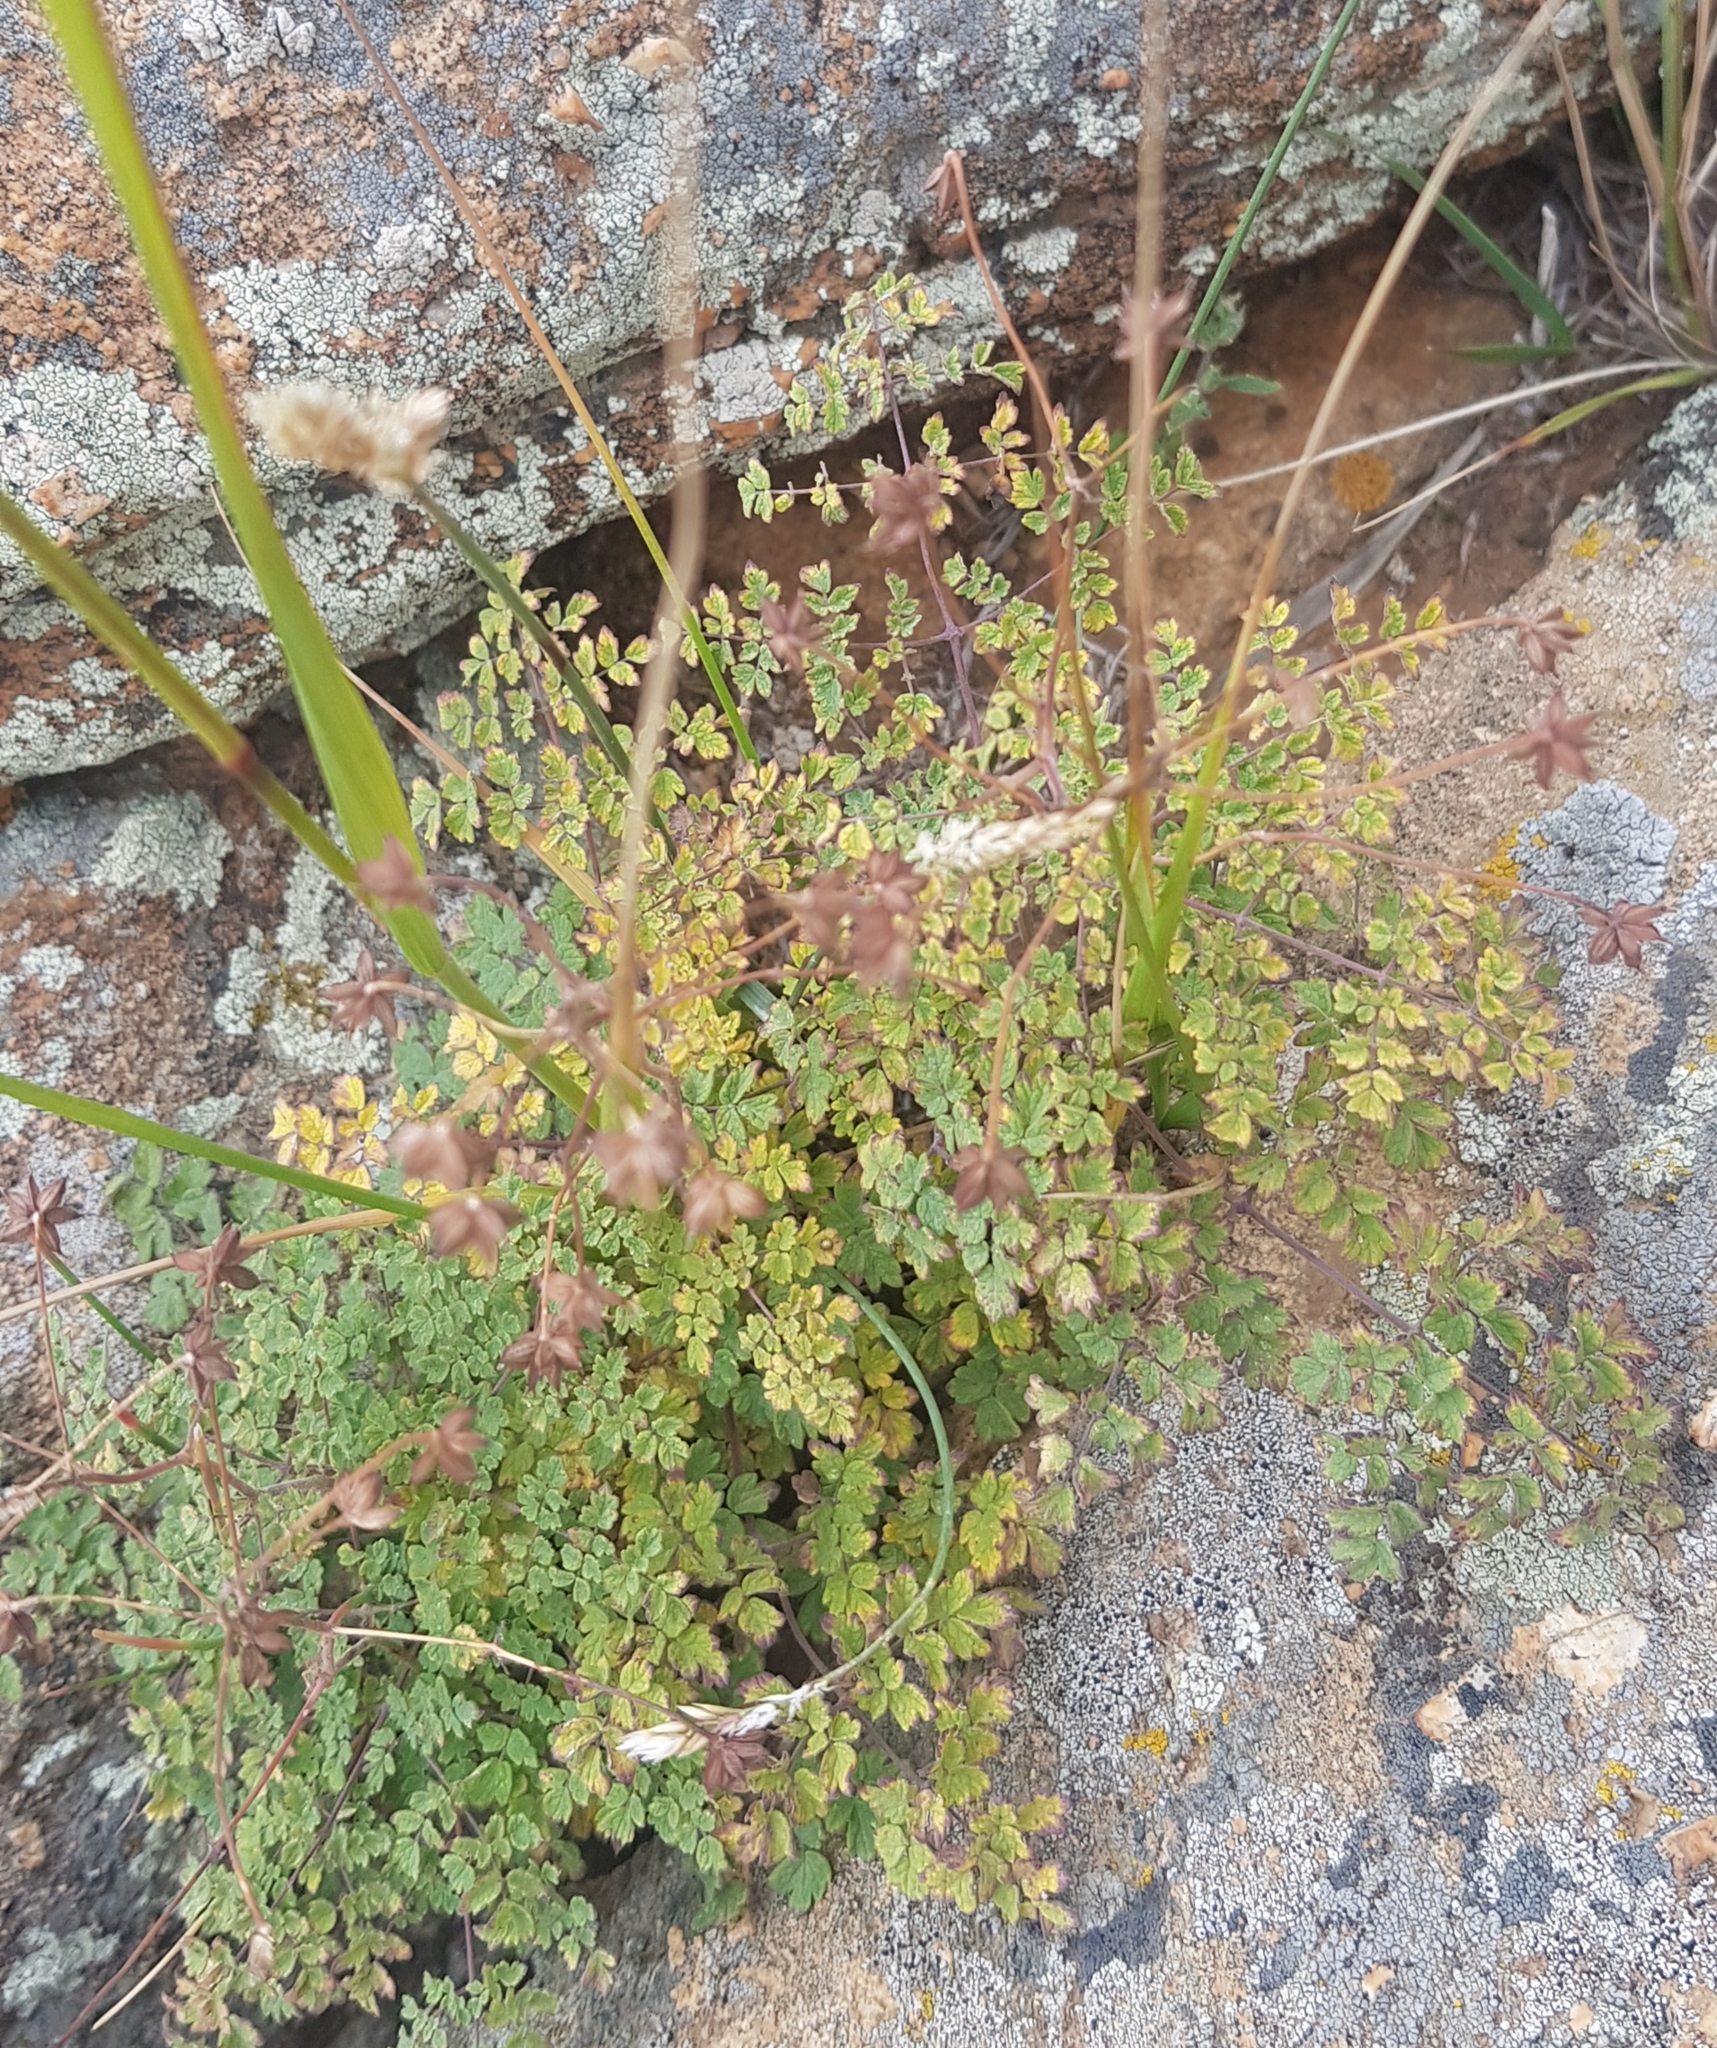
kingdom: Plantae
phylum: Tracheophyta
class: Magnoliopsida
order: Ranunculales
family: Ranunculaceae
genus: Thalictrum
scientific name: Thalictrum foetidum
